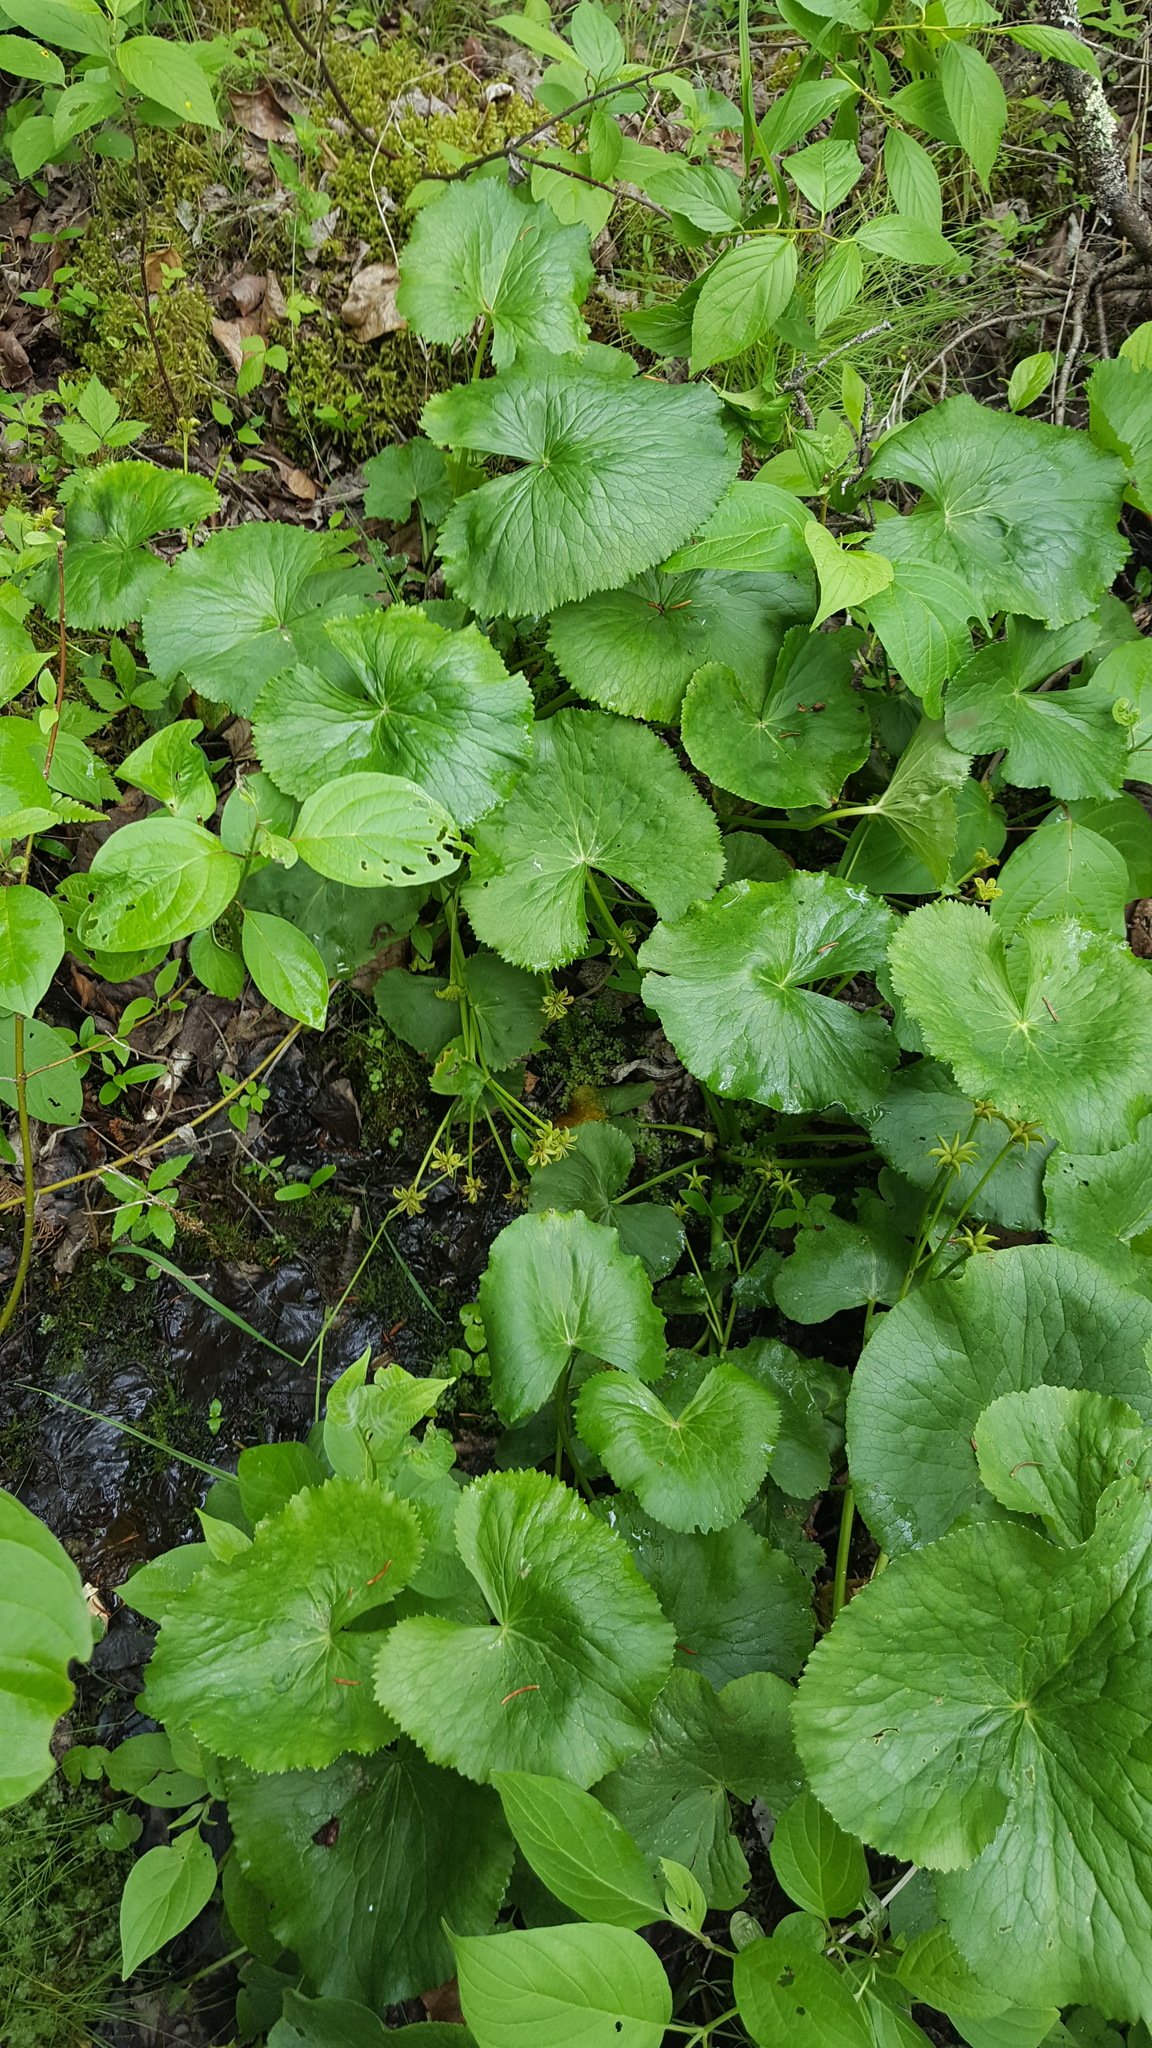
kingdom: Plantae
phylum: Tracheophyta
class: Magnoliopsida
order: Ranunculales
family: Ranunculaceae
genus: Caltha
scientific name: Caltha palustris
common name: Marsh marigold
